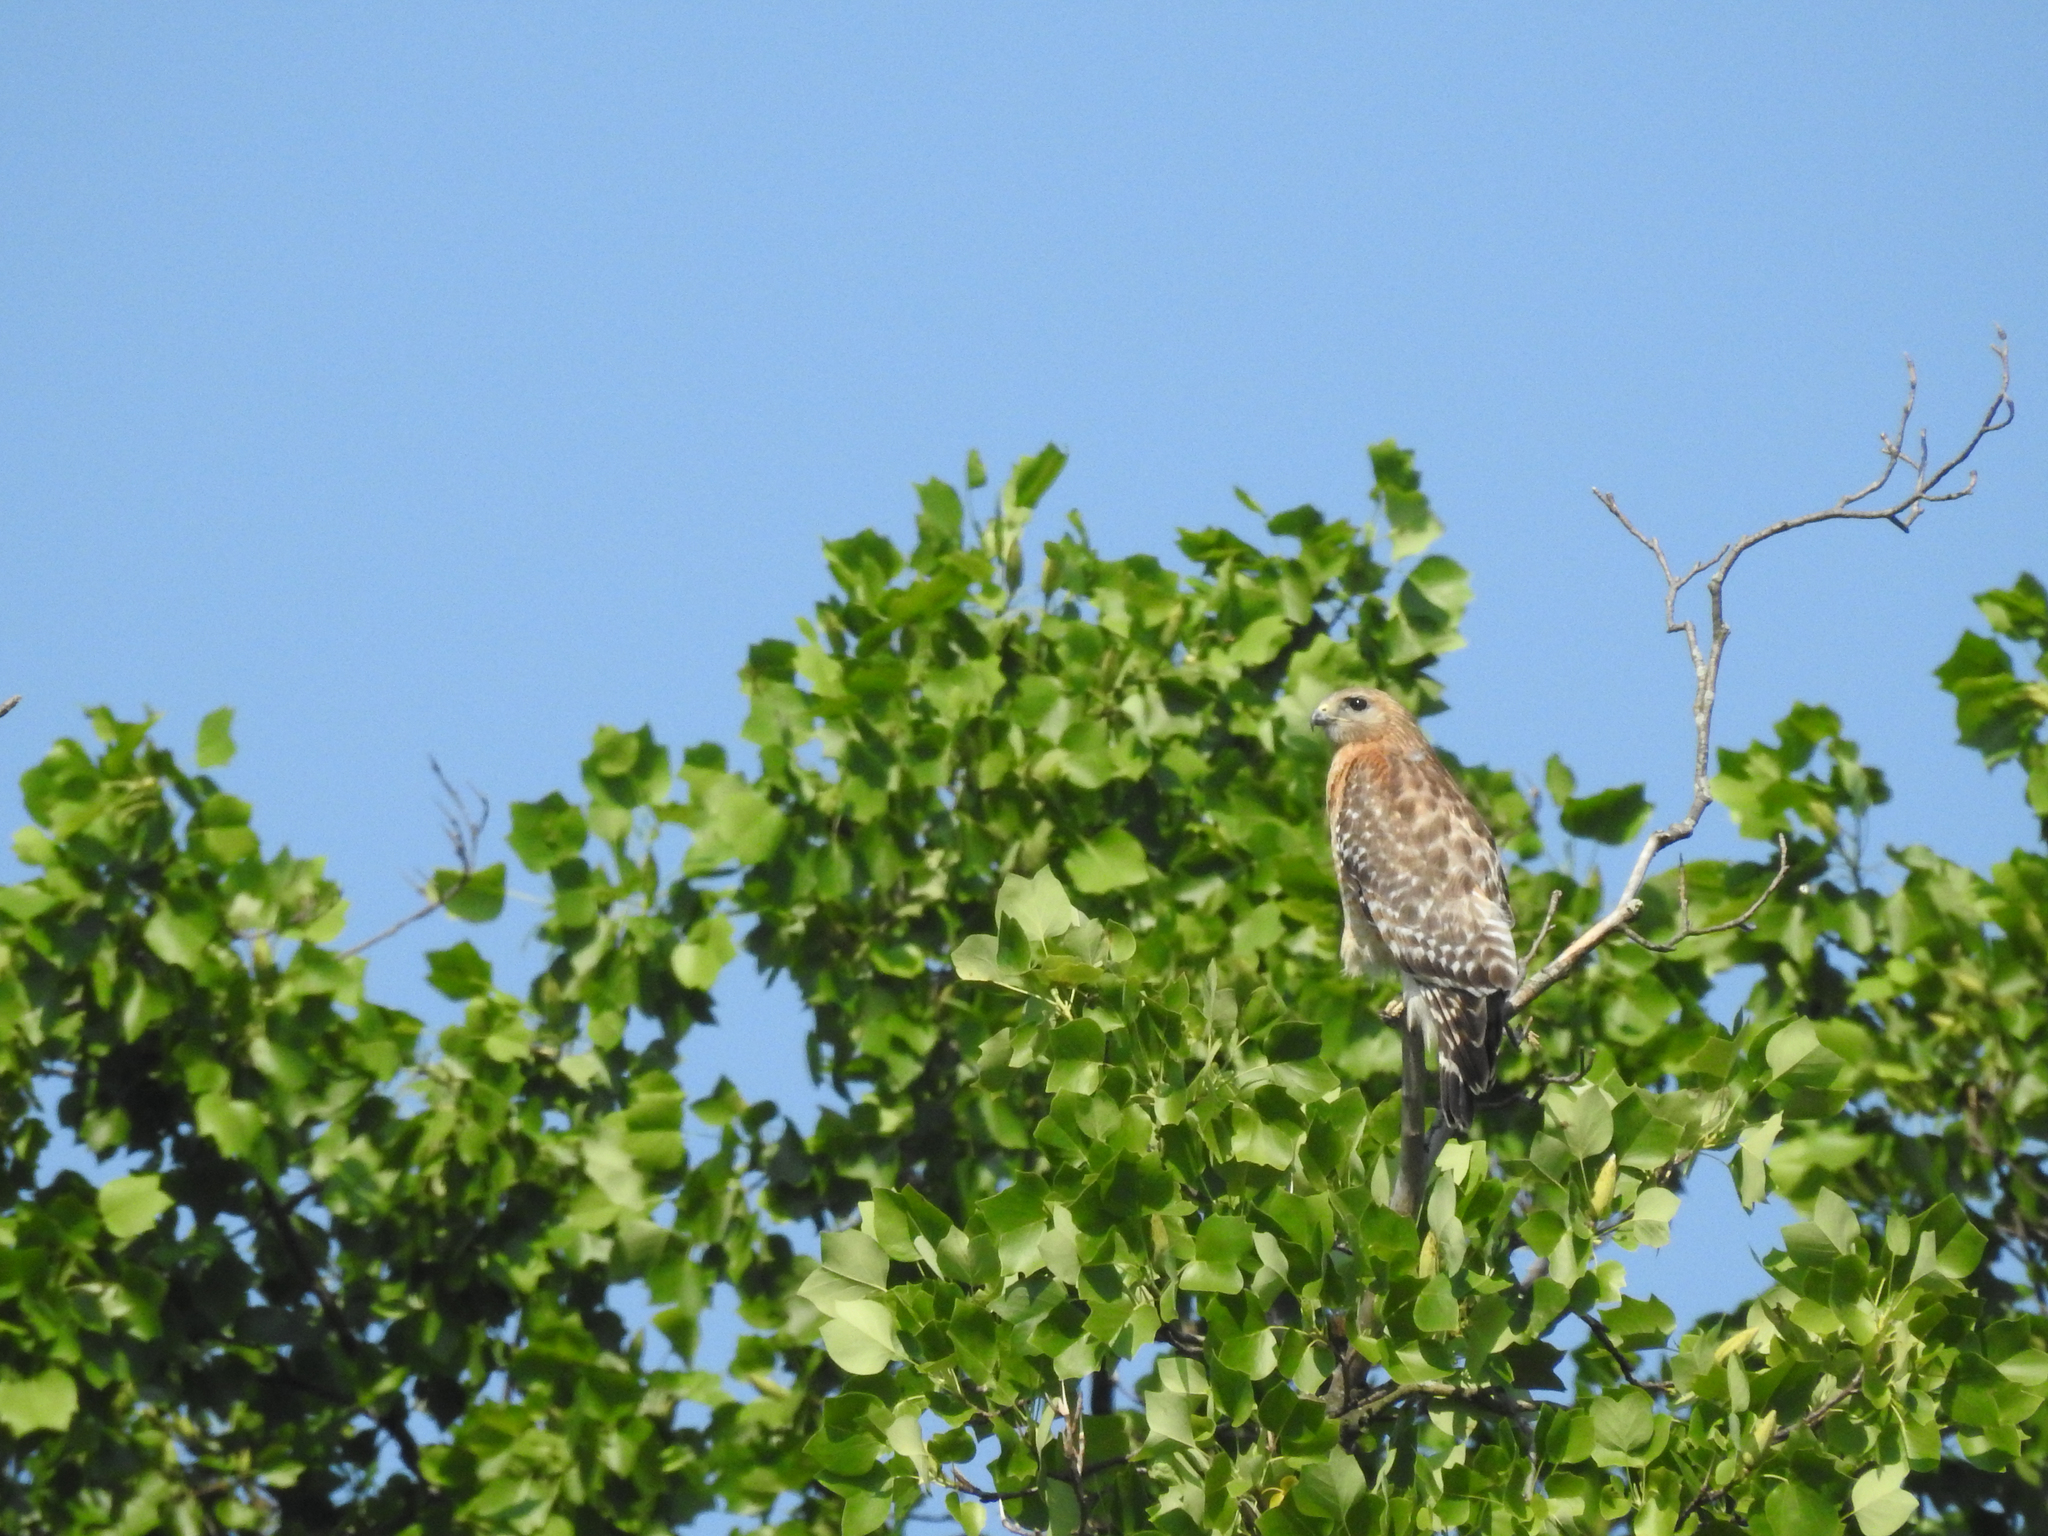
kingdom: Animalia
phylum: Chordata
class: Aves
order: Accipitriformes
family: Accipitridae
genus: Buteo
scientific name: Buteo lineatus
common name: Red-shouldered hawk
